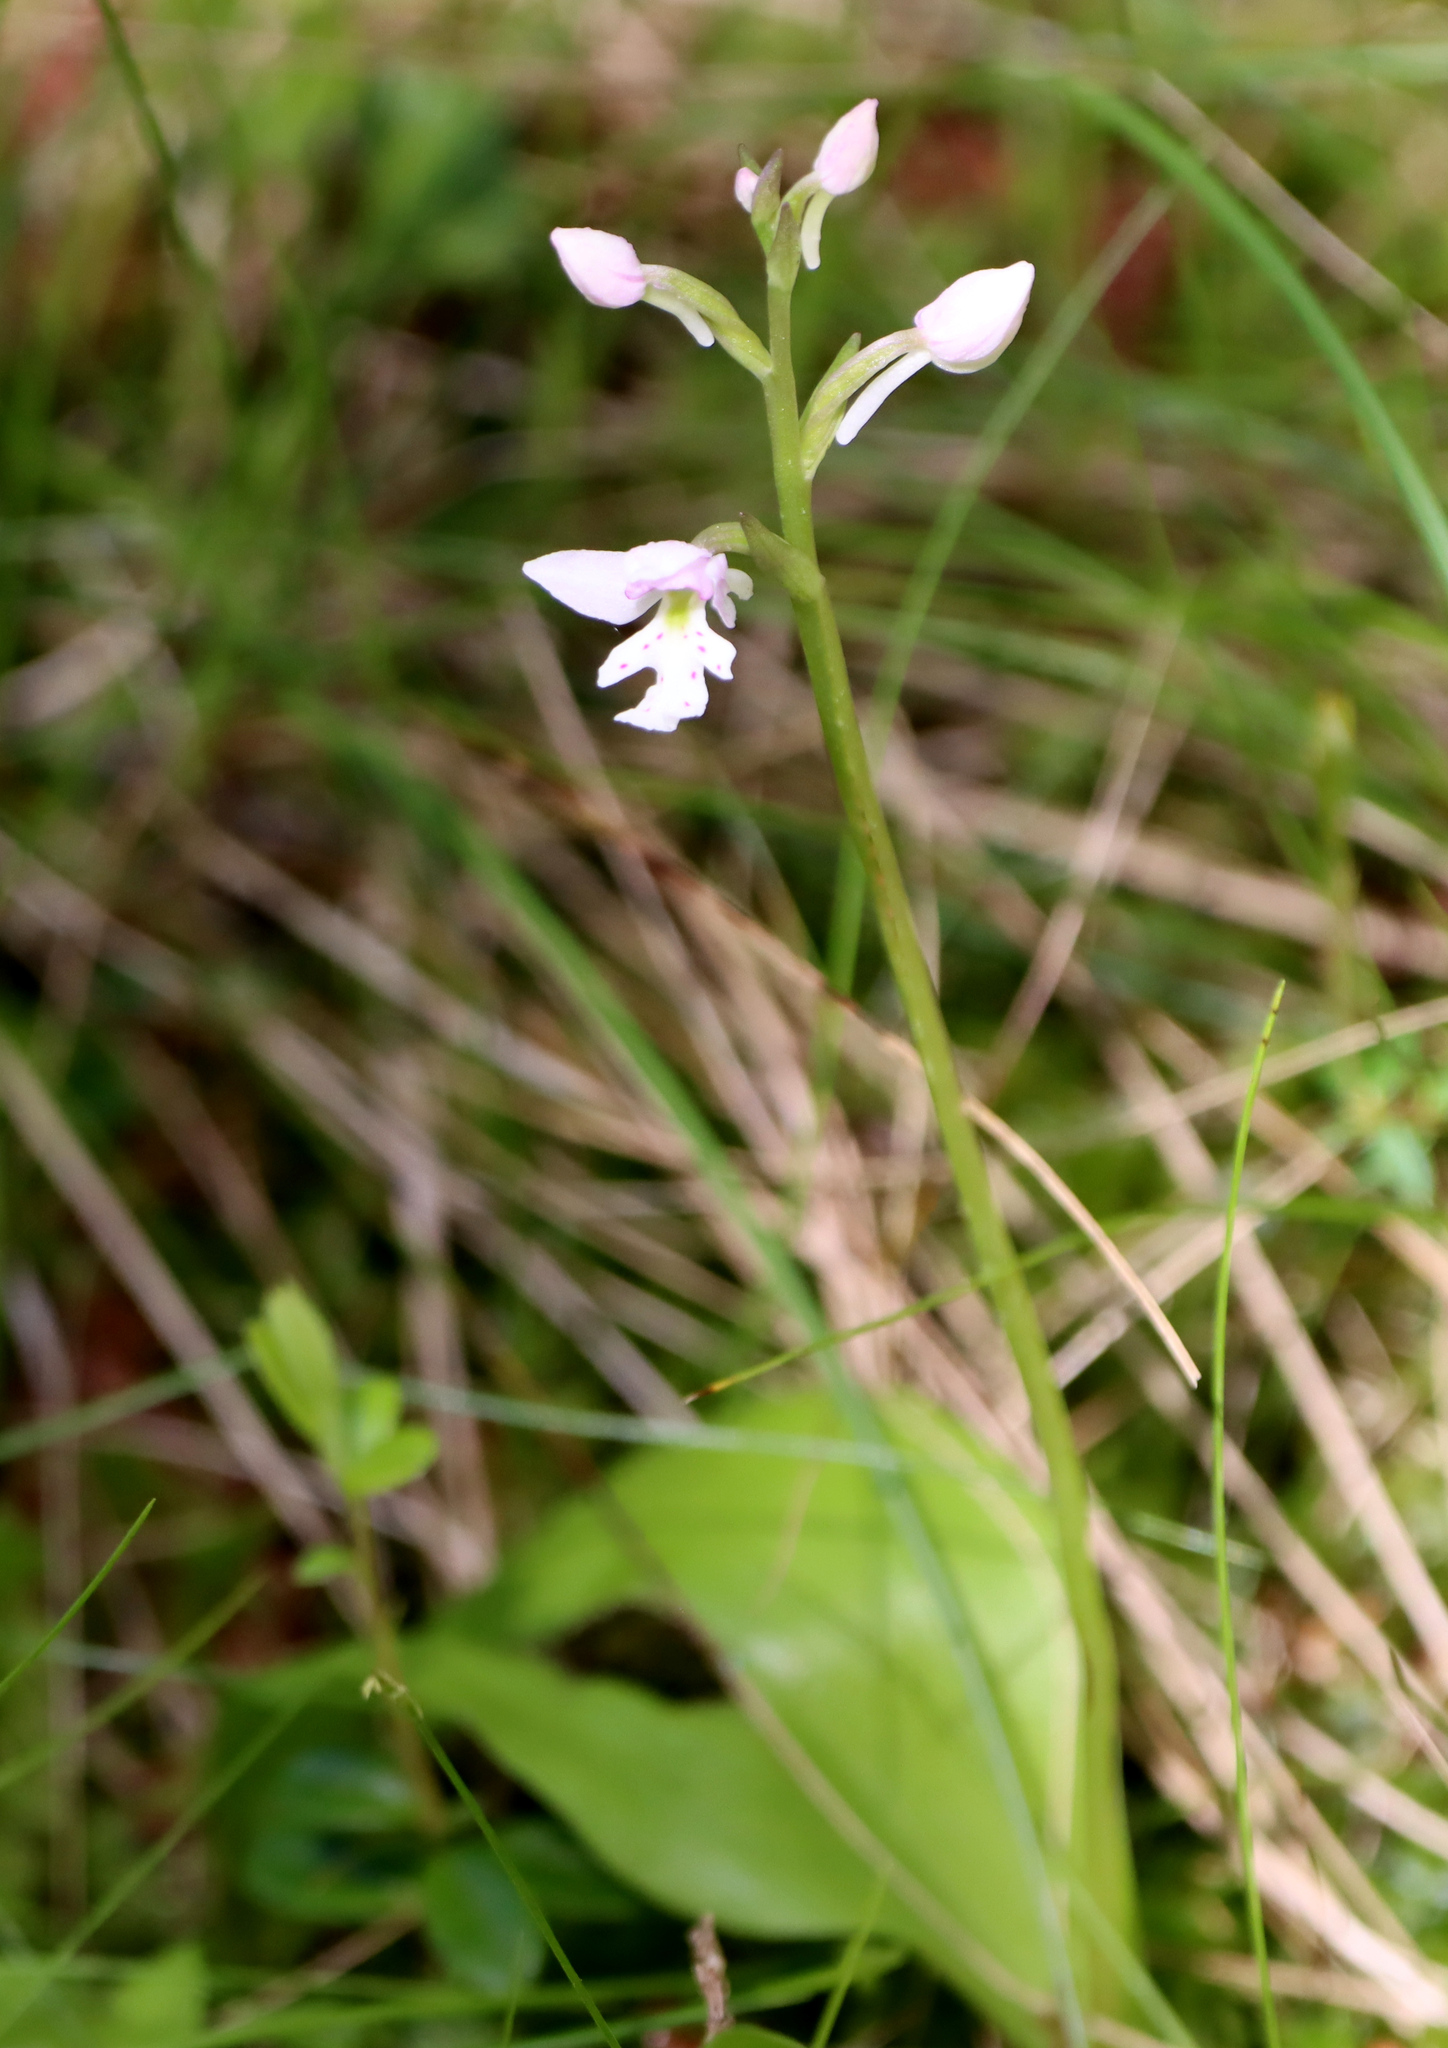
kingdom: Plantae
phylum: Tracheophyta
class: Liliopsida
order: Asparagales
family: Orchidaceae
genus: Galearis
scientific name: Galearis rotundifolia
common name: One-leaved orchis
